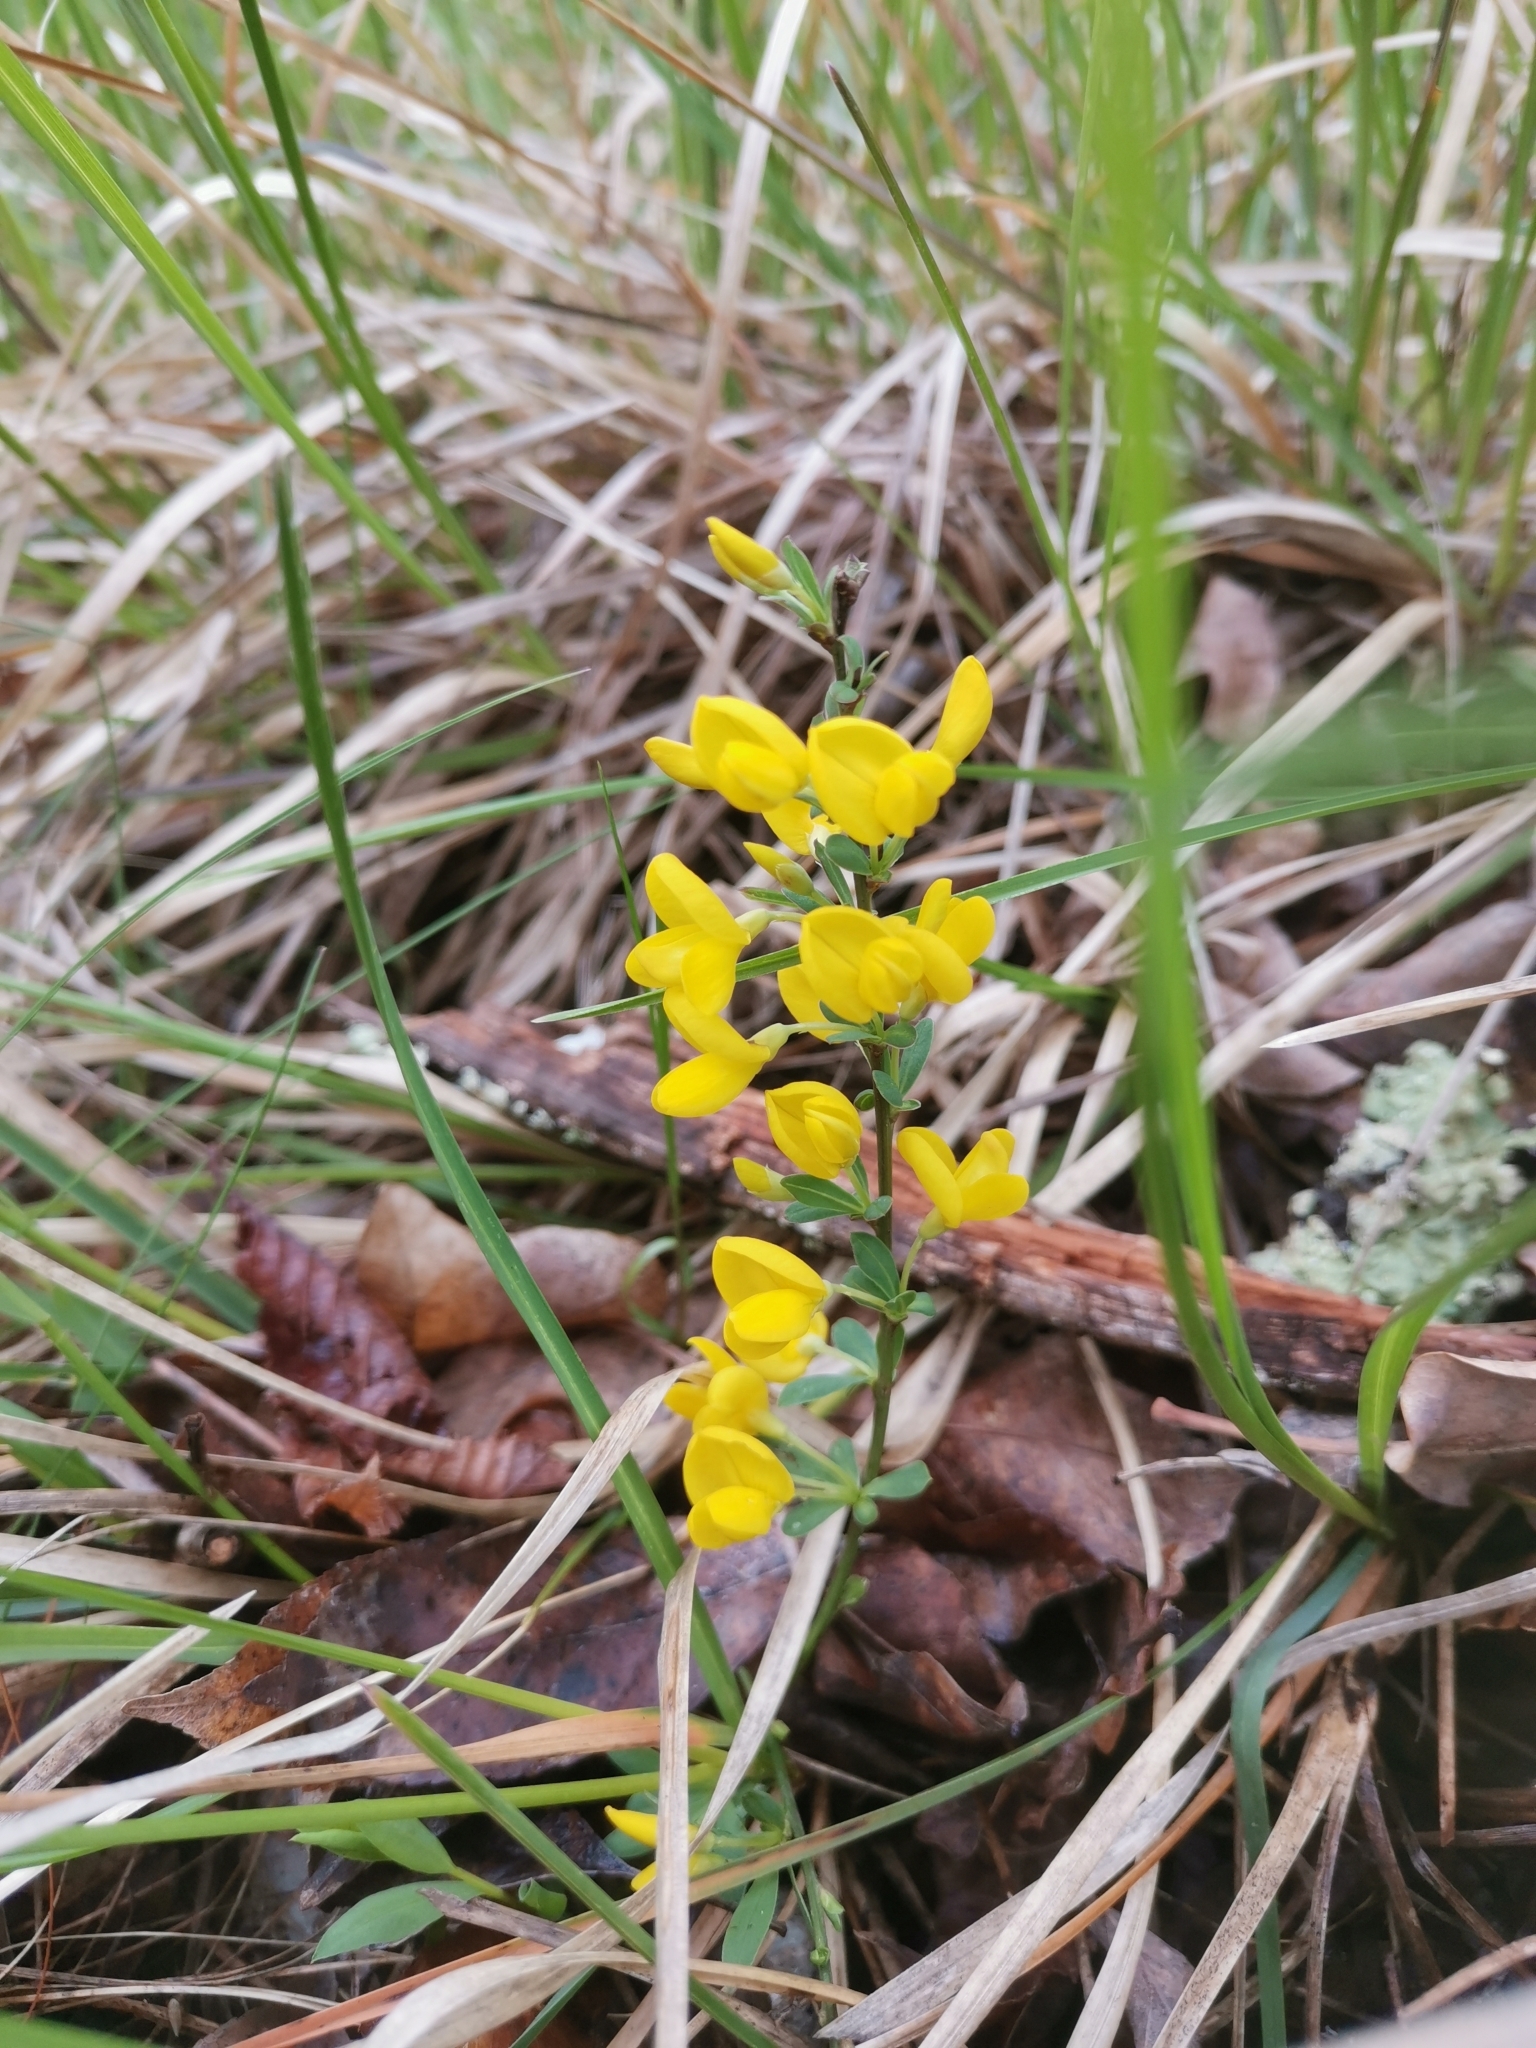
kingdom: Plantae
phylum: Tracheophyta
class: Magnoliopsida
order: Fabales
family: Fabaceae
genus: Cytisus
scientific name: Cytisus decumbens
